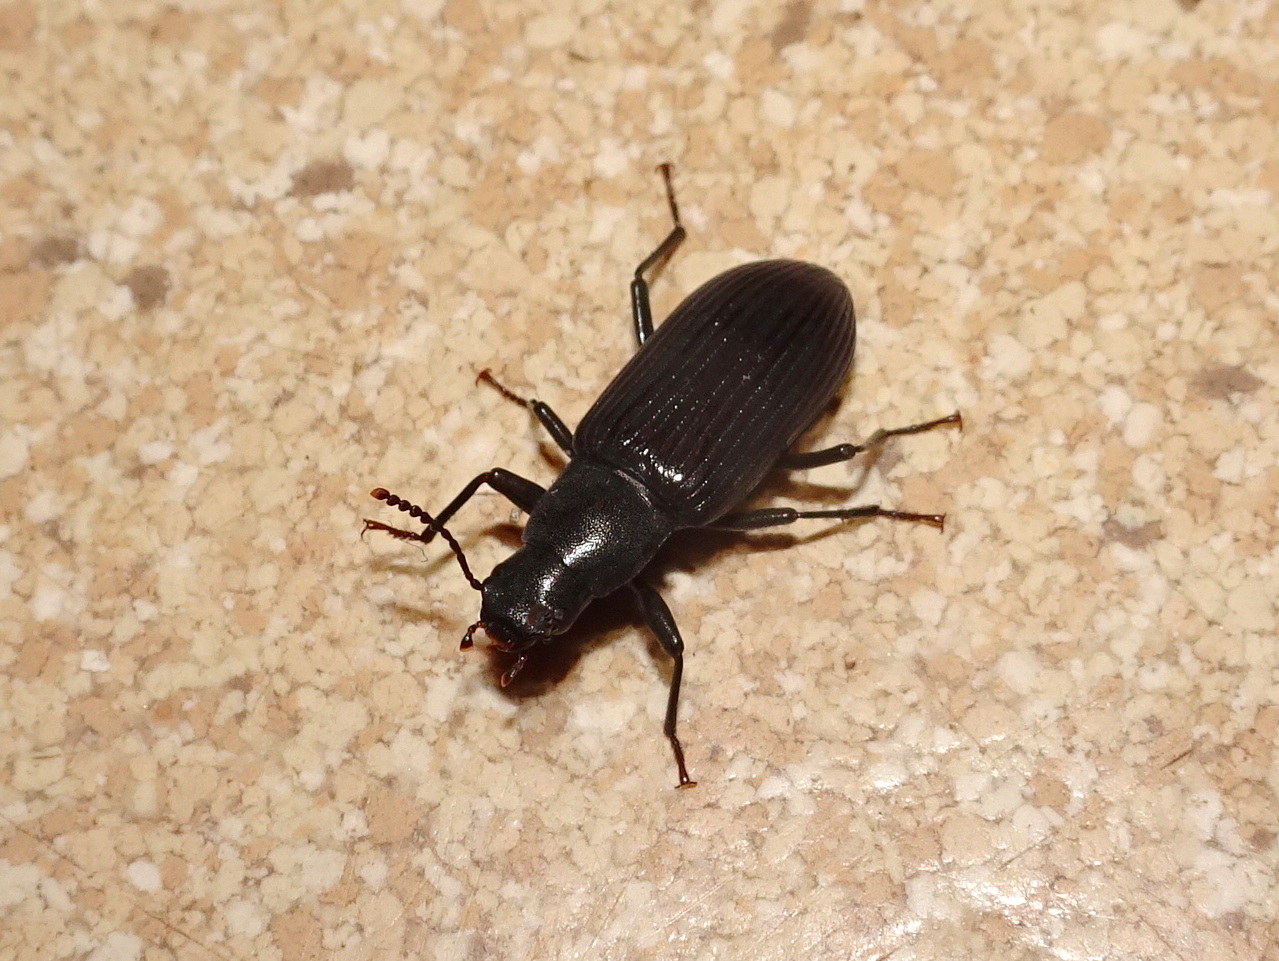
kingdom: Animalia
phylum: Arthropoda
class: Insecta
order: Coleoptera
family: Tenebrionidae
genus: Xylopinus
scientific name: Xylopinus saperdoides
